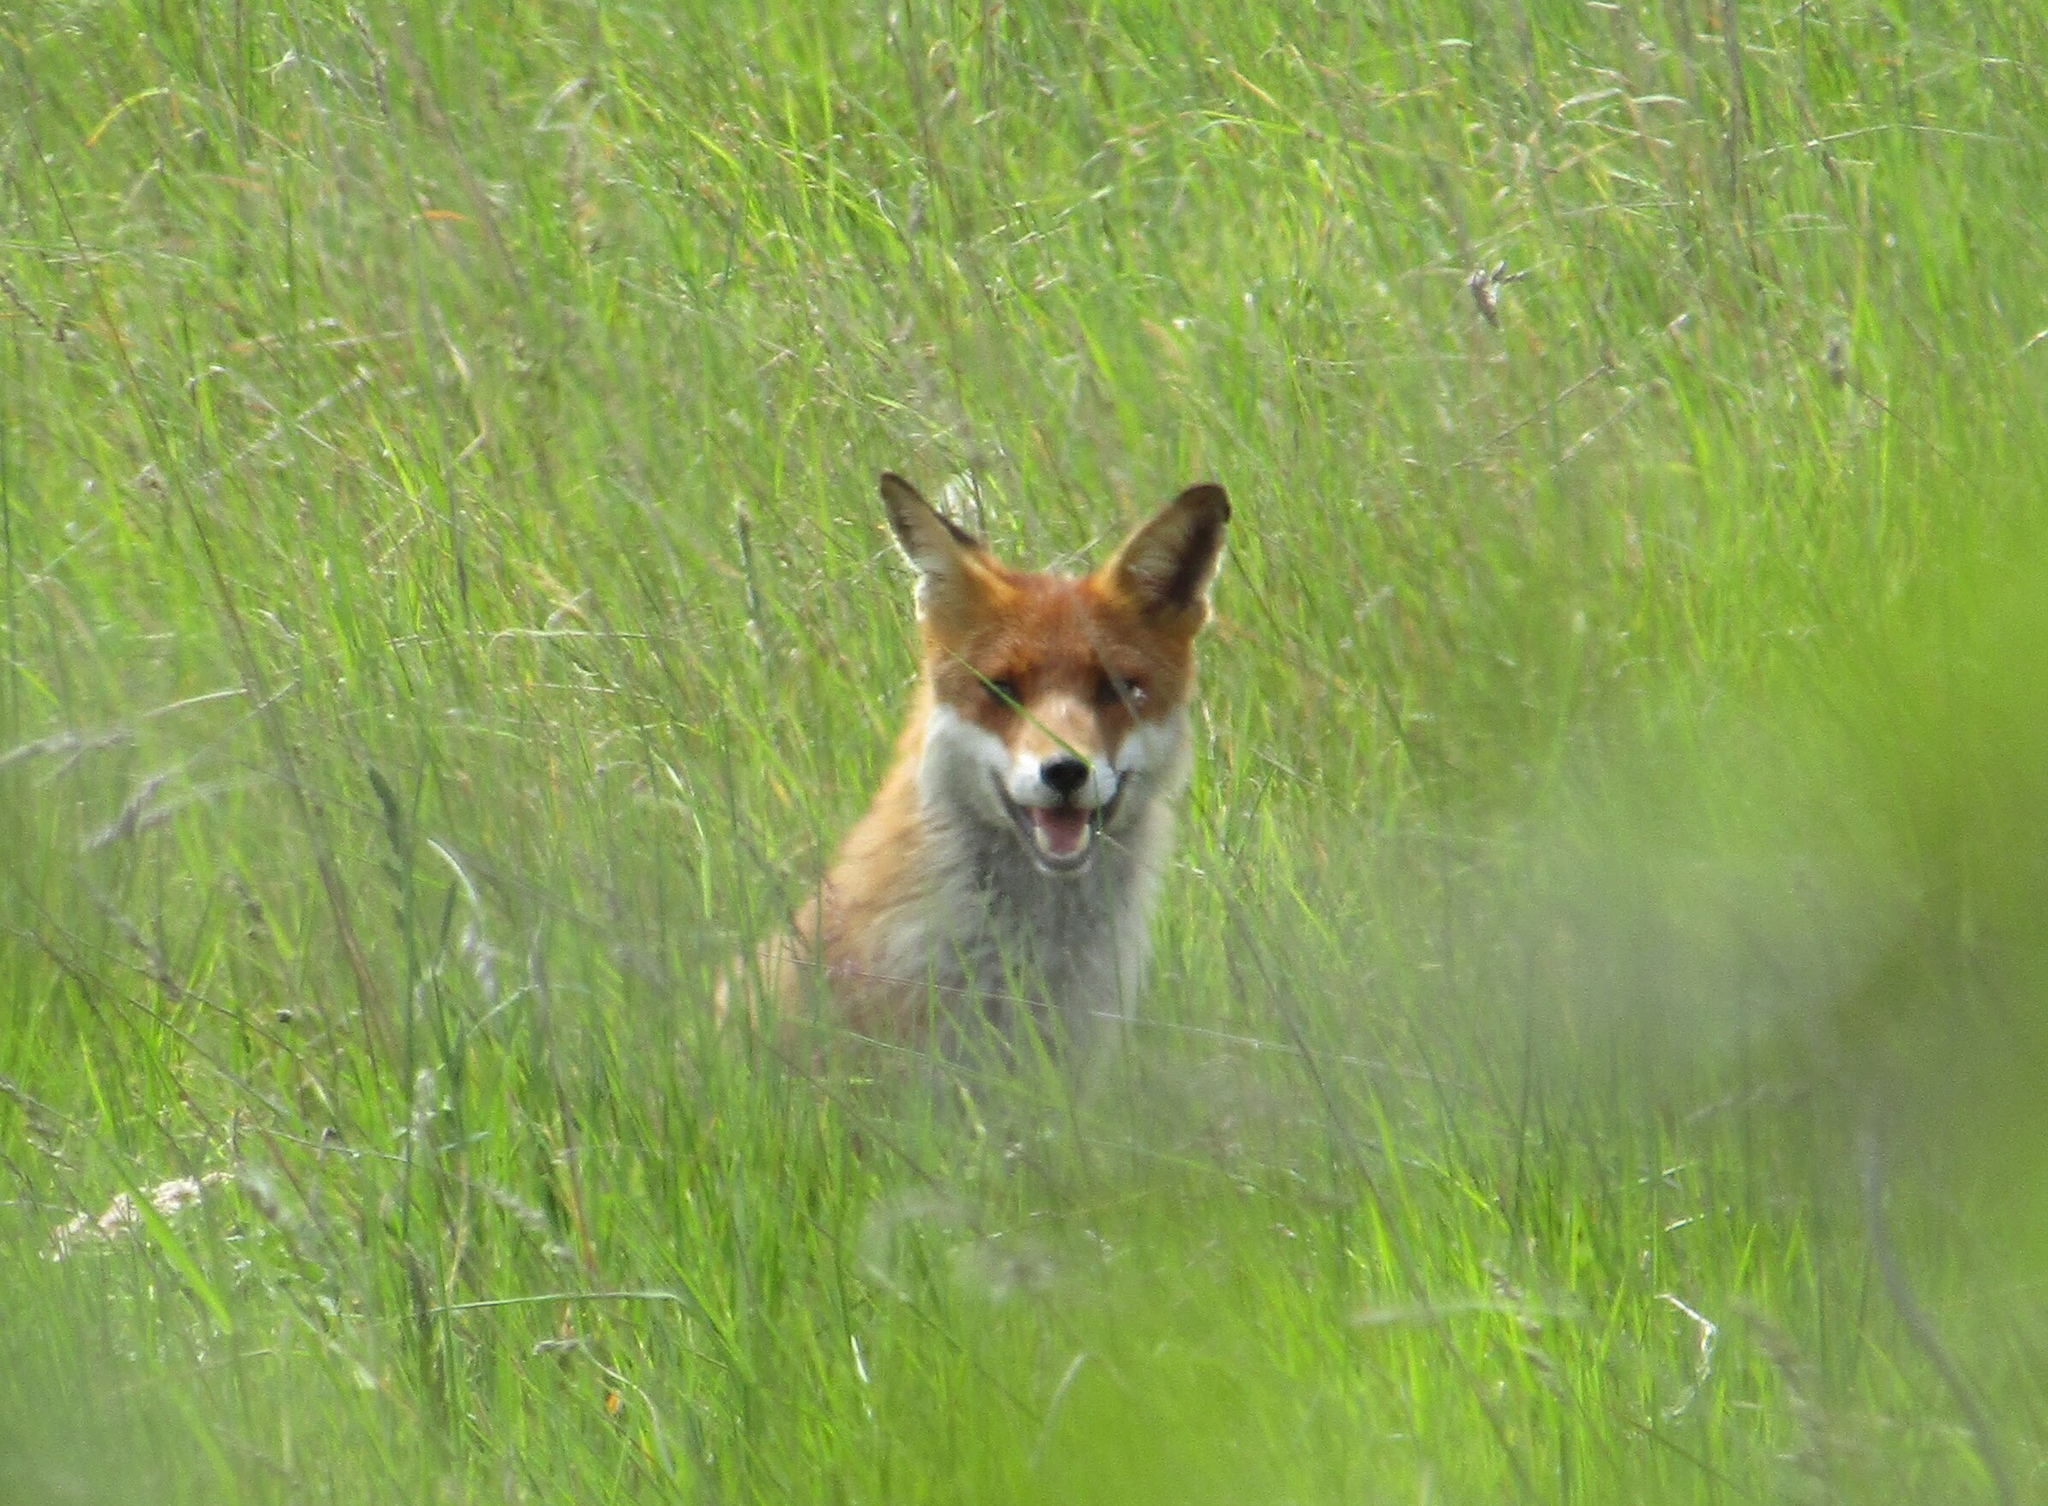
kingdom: Animalia
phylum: Chordata
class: Mammalia
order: Carnivora
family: Canidae
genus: Vulpes
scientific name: Vulpes vulpes
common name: Red fox
